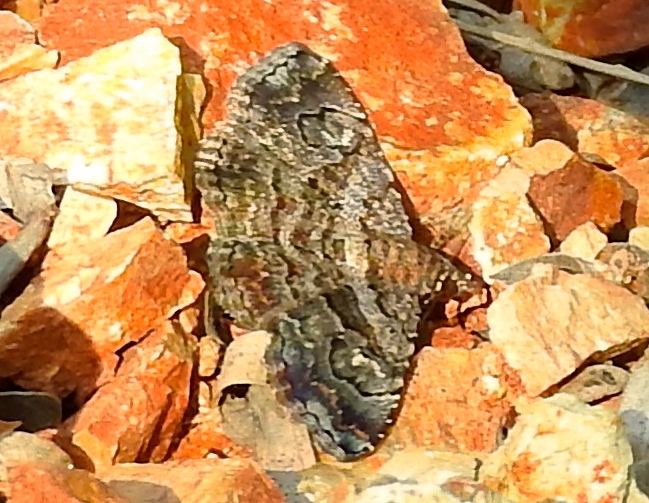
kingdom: Animalia
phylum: Arthropoda
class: Insecta
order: Lepidoptera
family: Erebidae
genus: Toxonprucha
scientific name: Toxonprucha
